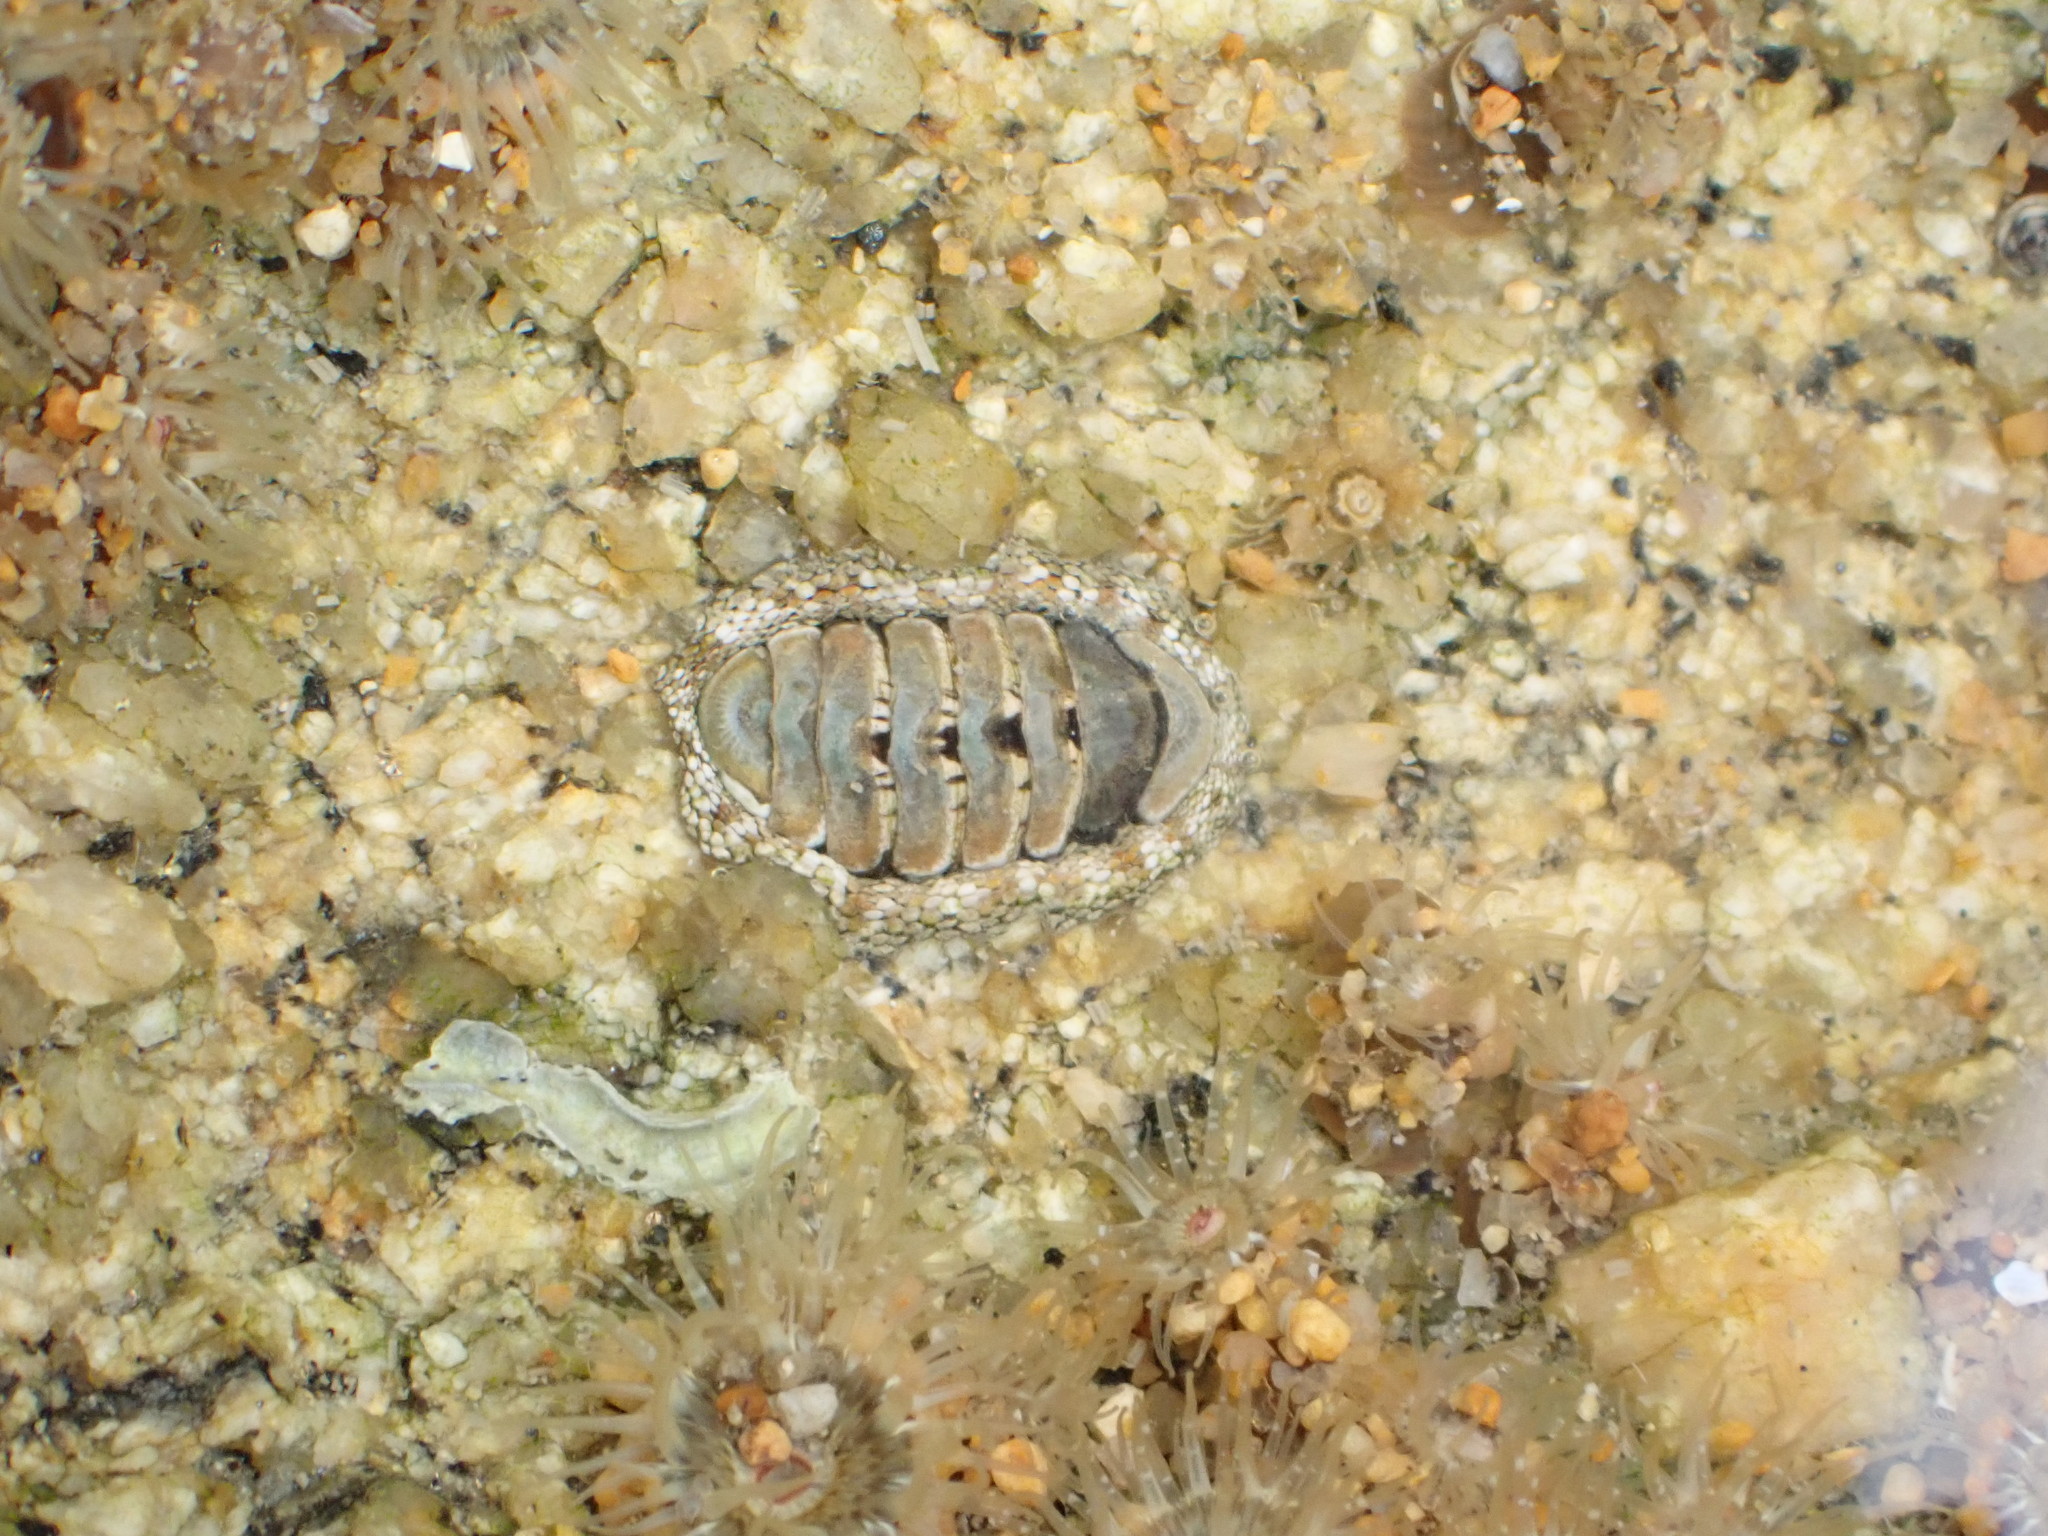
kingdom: Animalia
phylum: Mollusca
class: Polyplacophora
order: Chitonida
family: Chitonidae
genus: Sypharochiton
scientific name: Sypharochiton pelliserpentis
